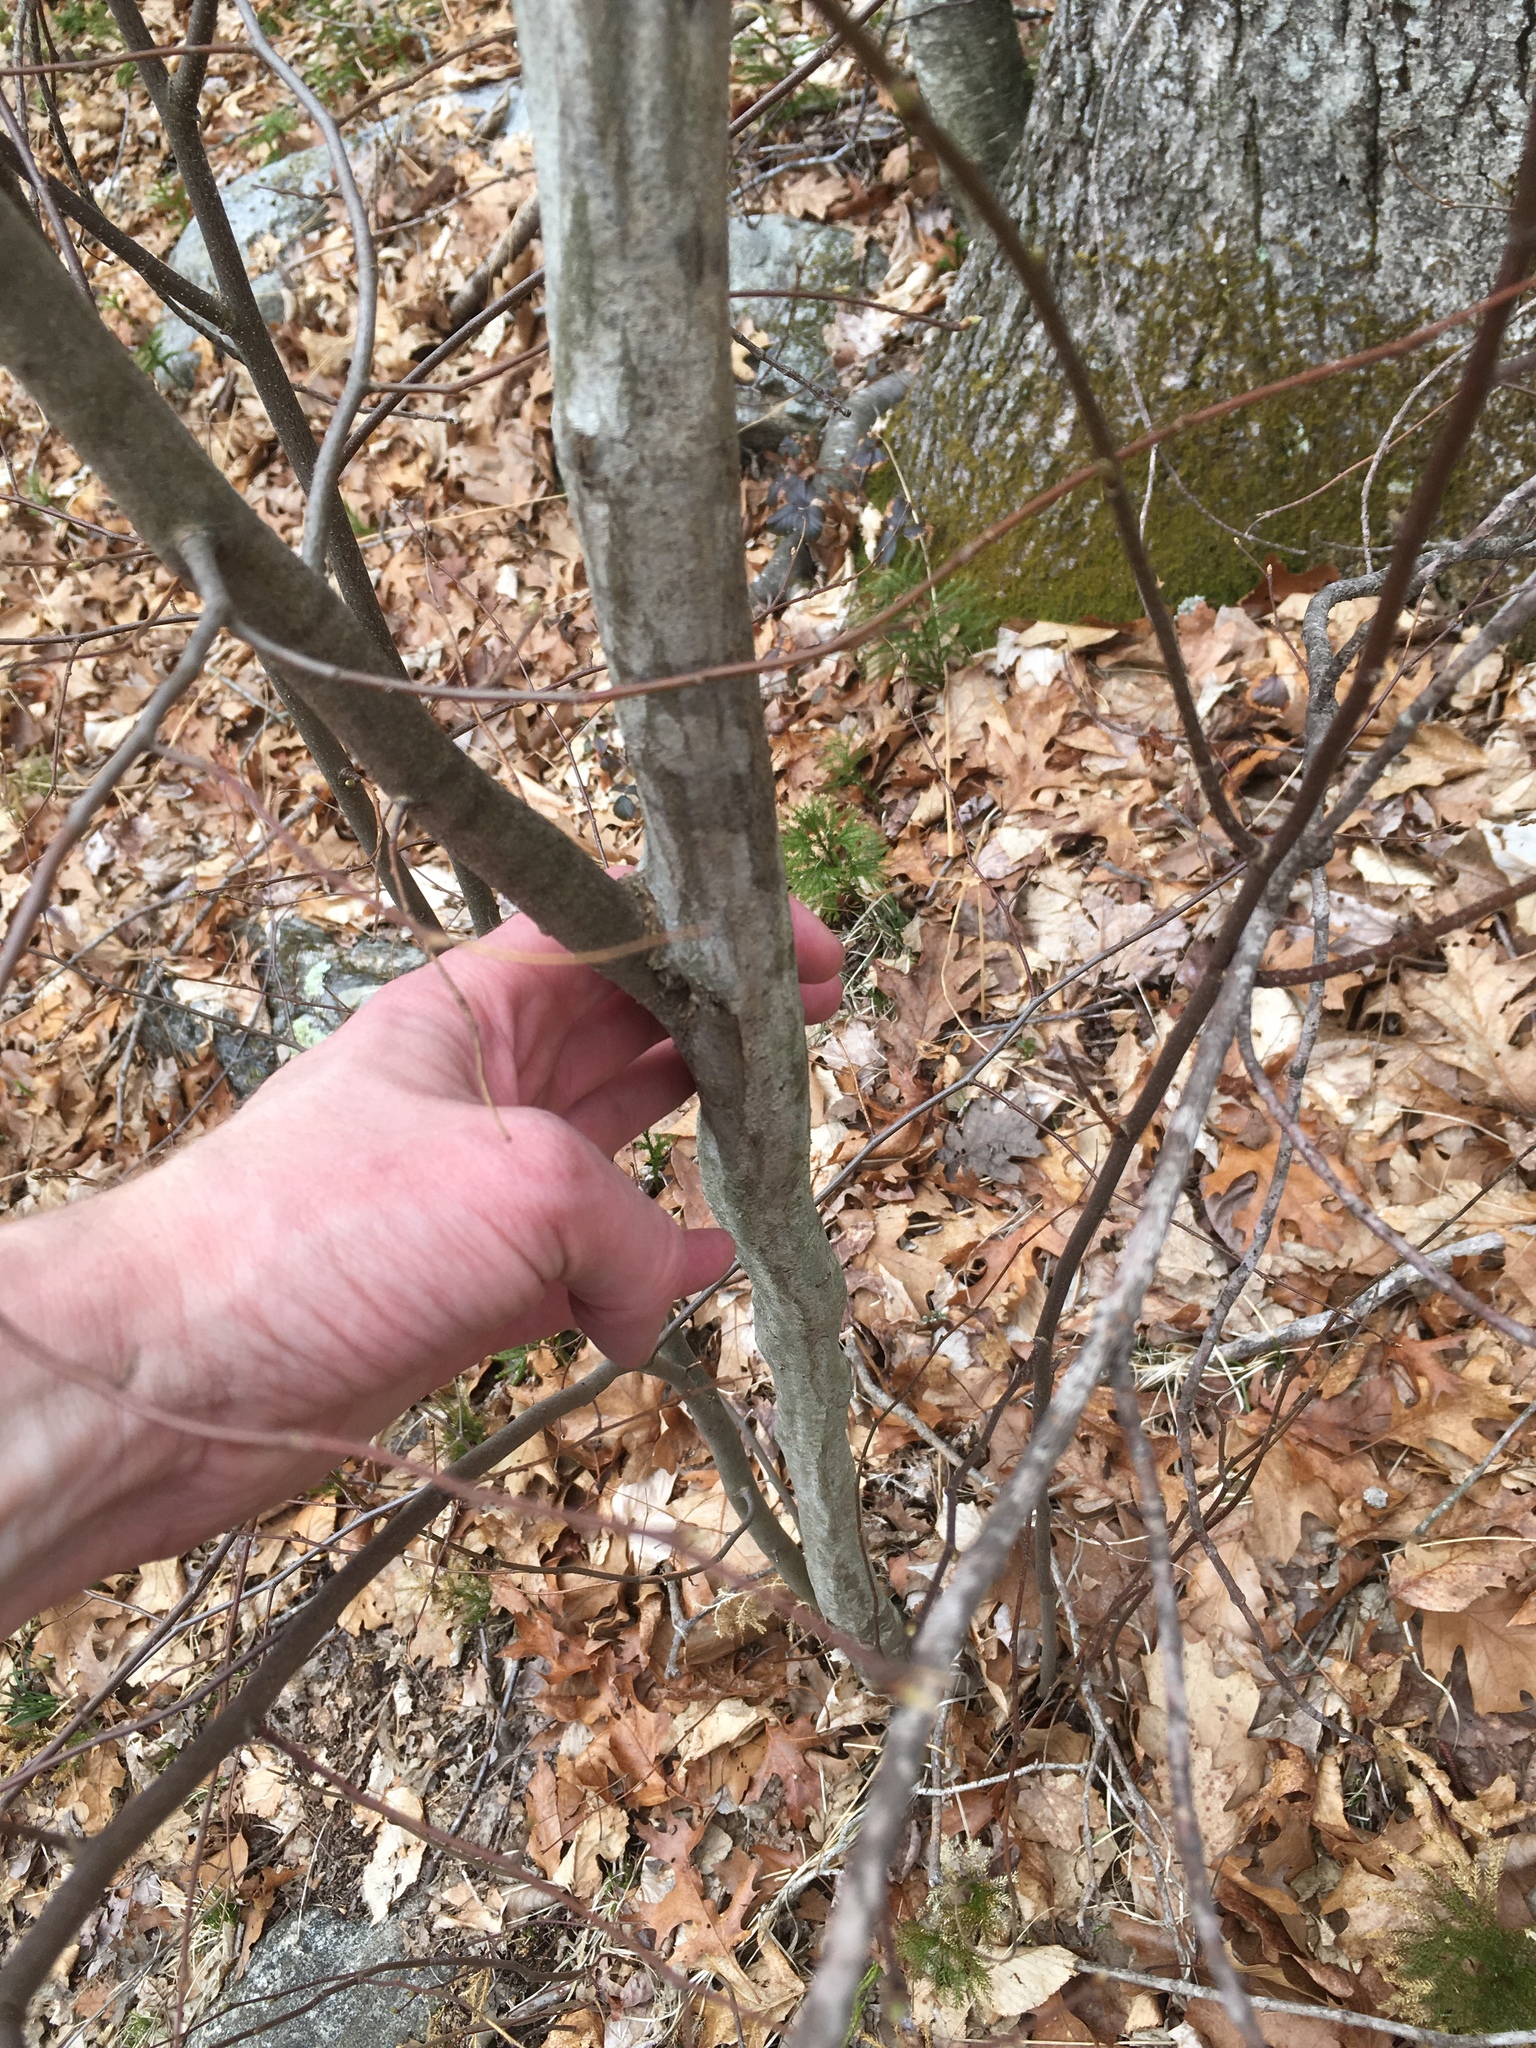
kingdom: Plantae
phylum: Tracheophyta
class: Magnoliopsida
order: Fagales
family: Betulaceae
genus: Carpinus
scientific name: Carpinus caroliniana
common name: American hornbeam
